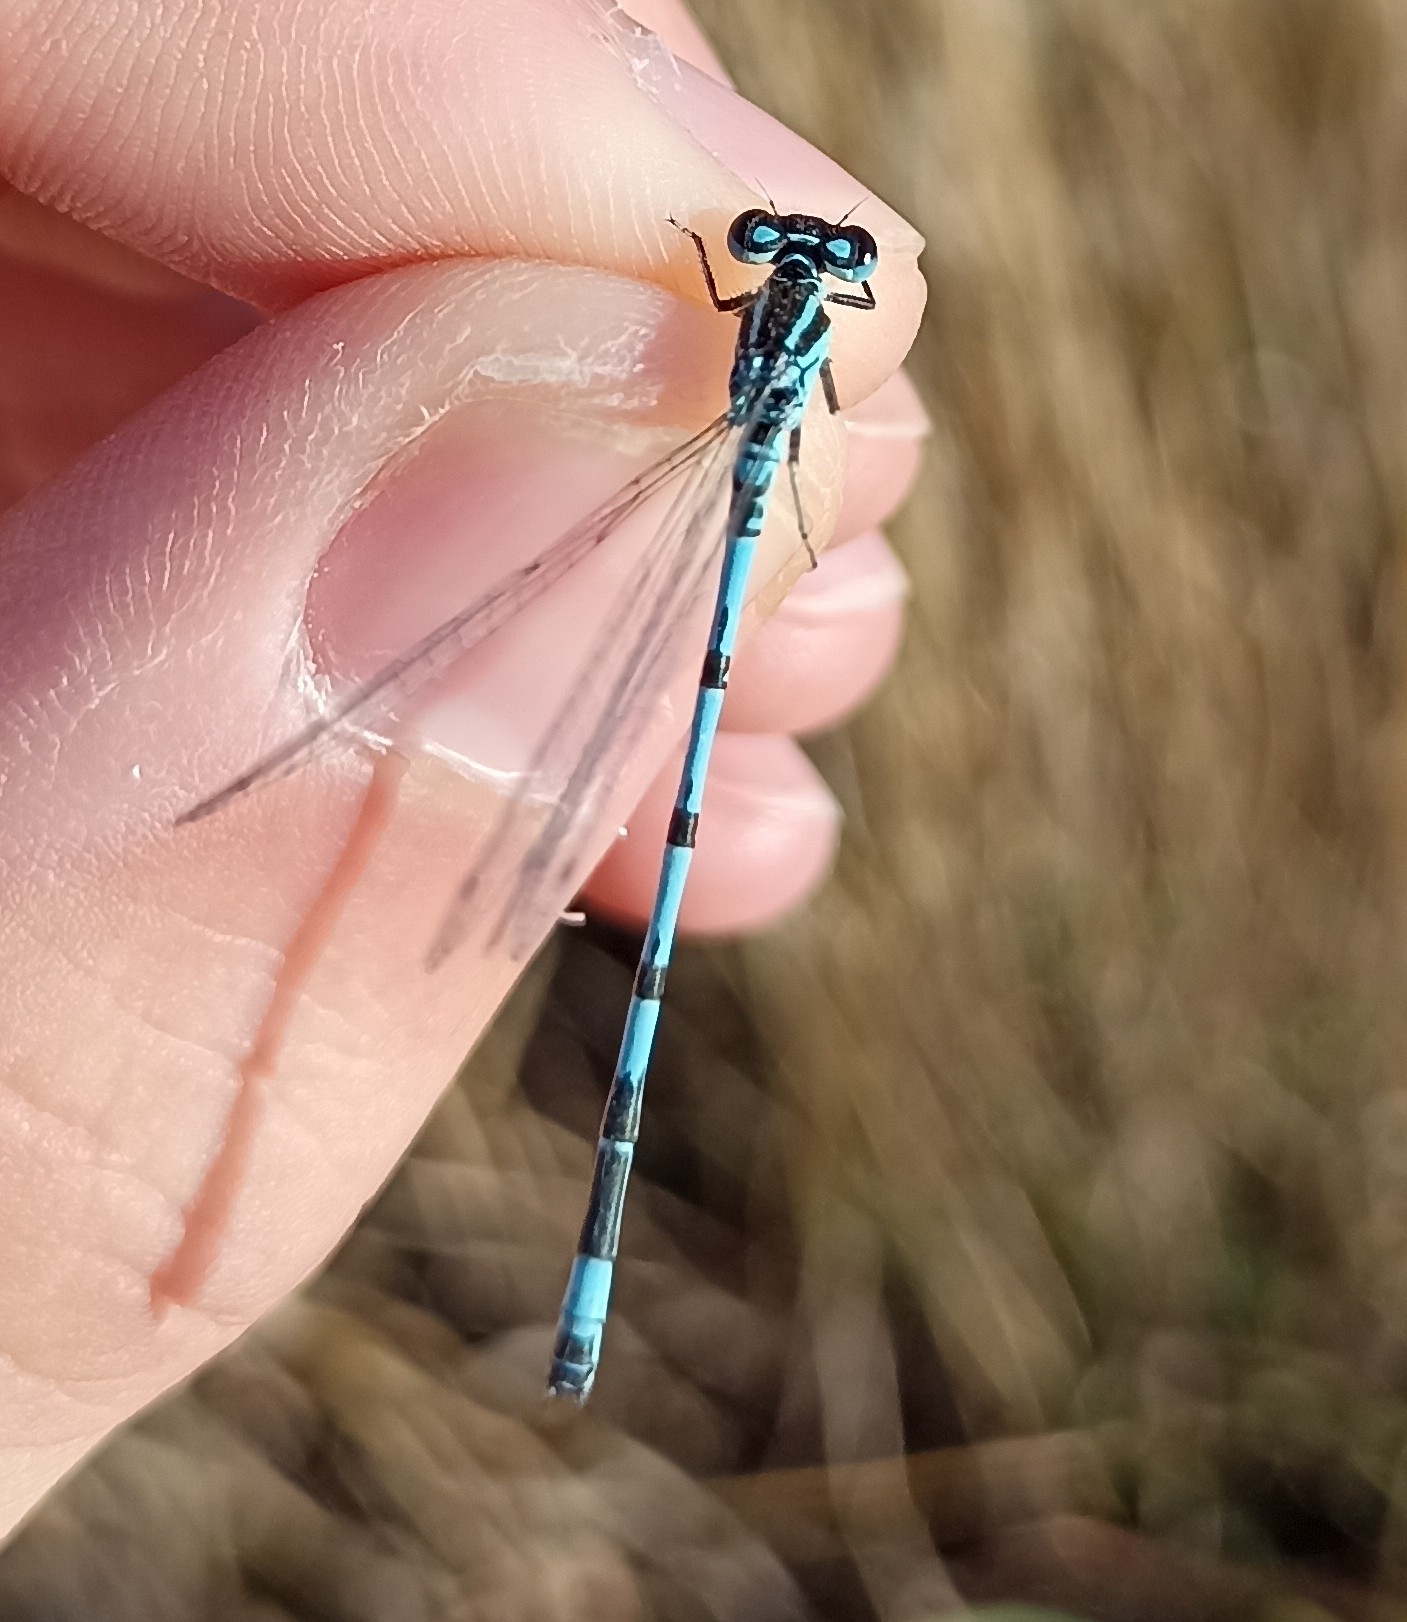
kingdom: Animalia
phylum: Arthropoda
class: Insecta
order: Odonata
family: Coenagrionidae
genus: Coenagrion
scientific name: Coenagrion mercuriale
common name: Southern damselfly
